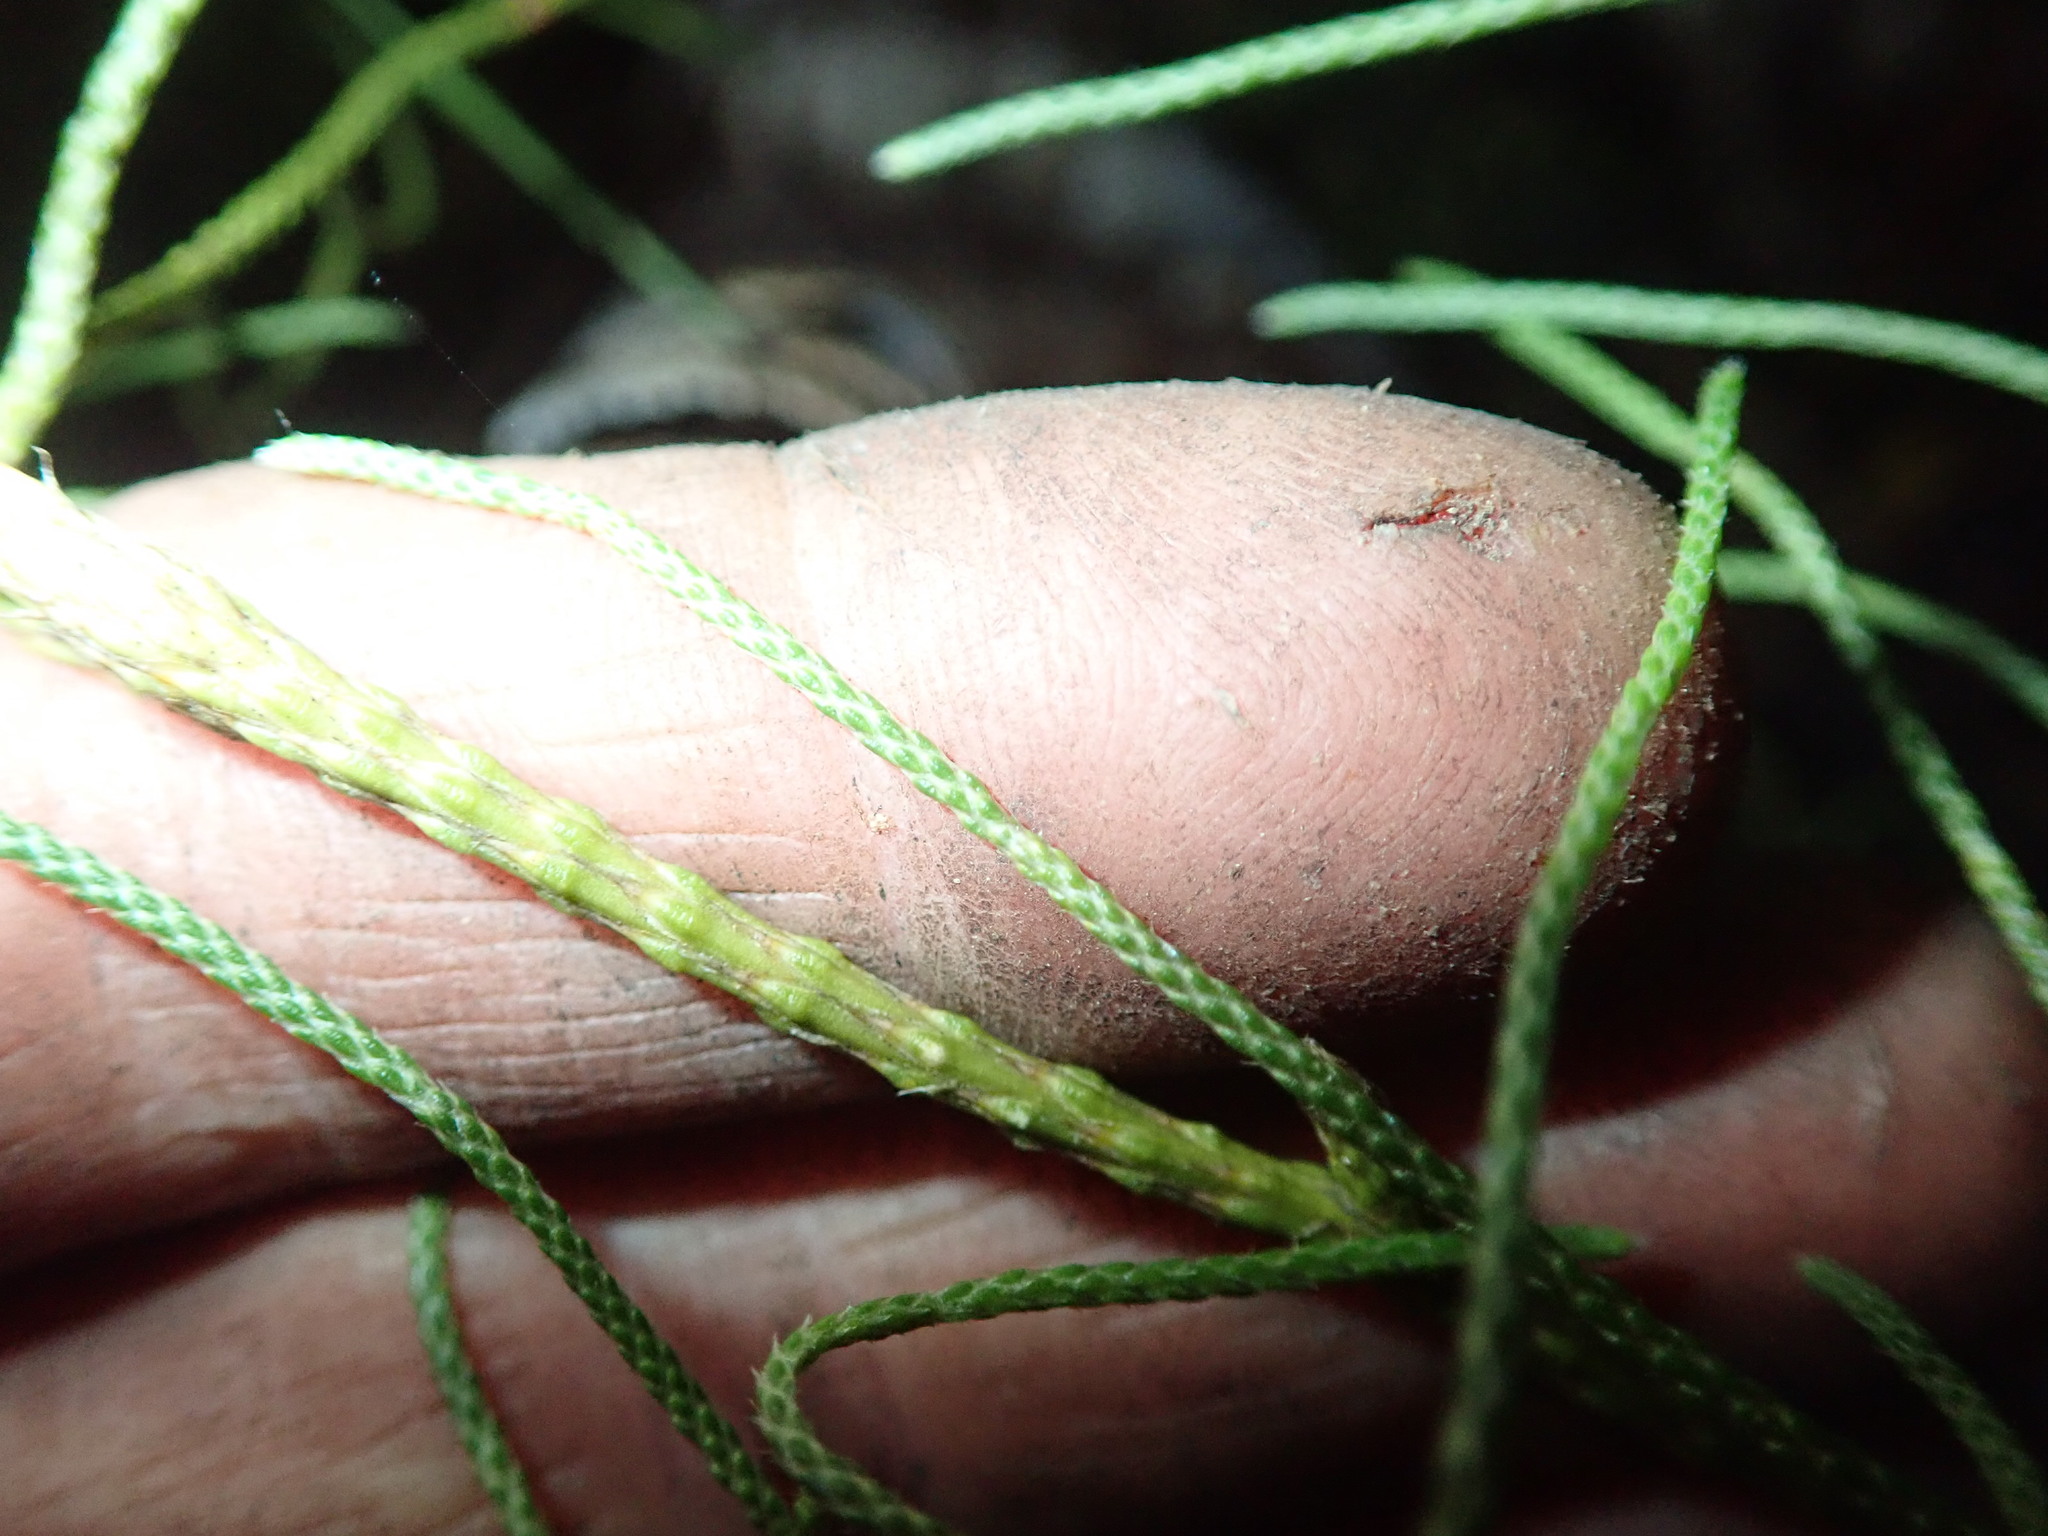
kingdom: Plantae
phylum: Tracheophyta
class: Lycopodiopsida
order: Lycopodiales
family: Lycopodiaceae
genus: Pseudolycopodium
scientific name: Pseudolycopodium densum
